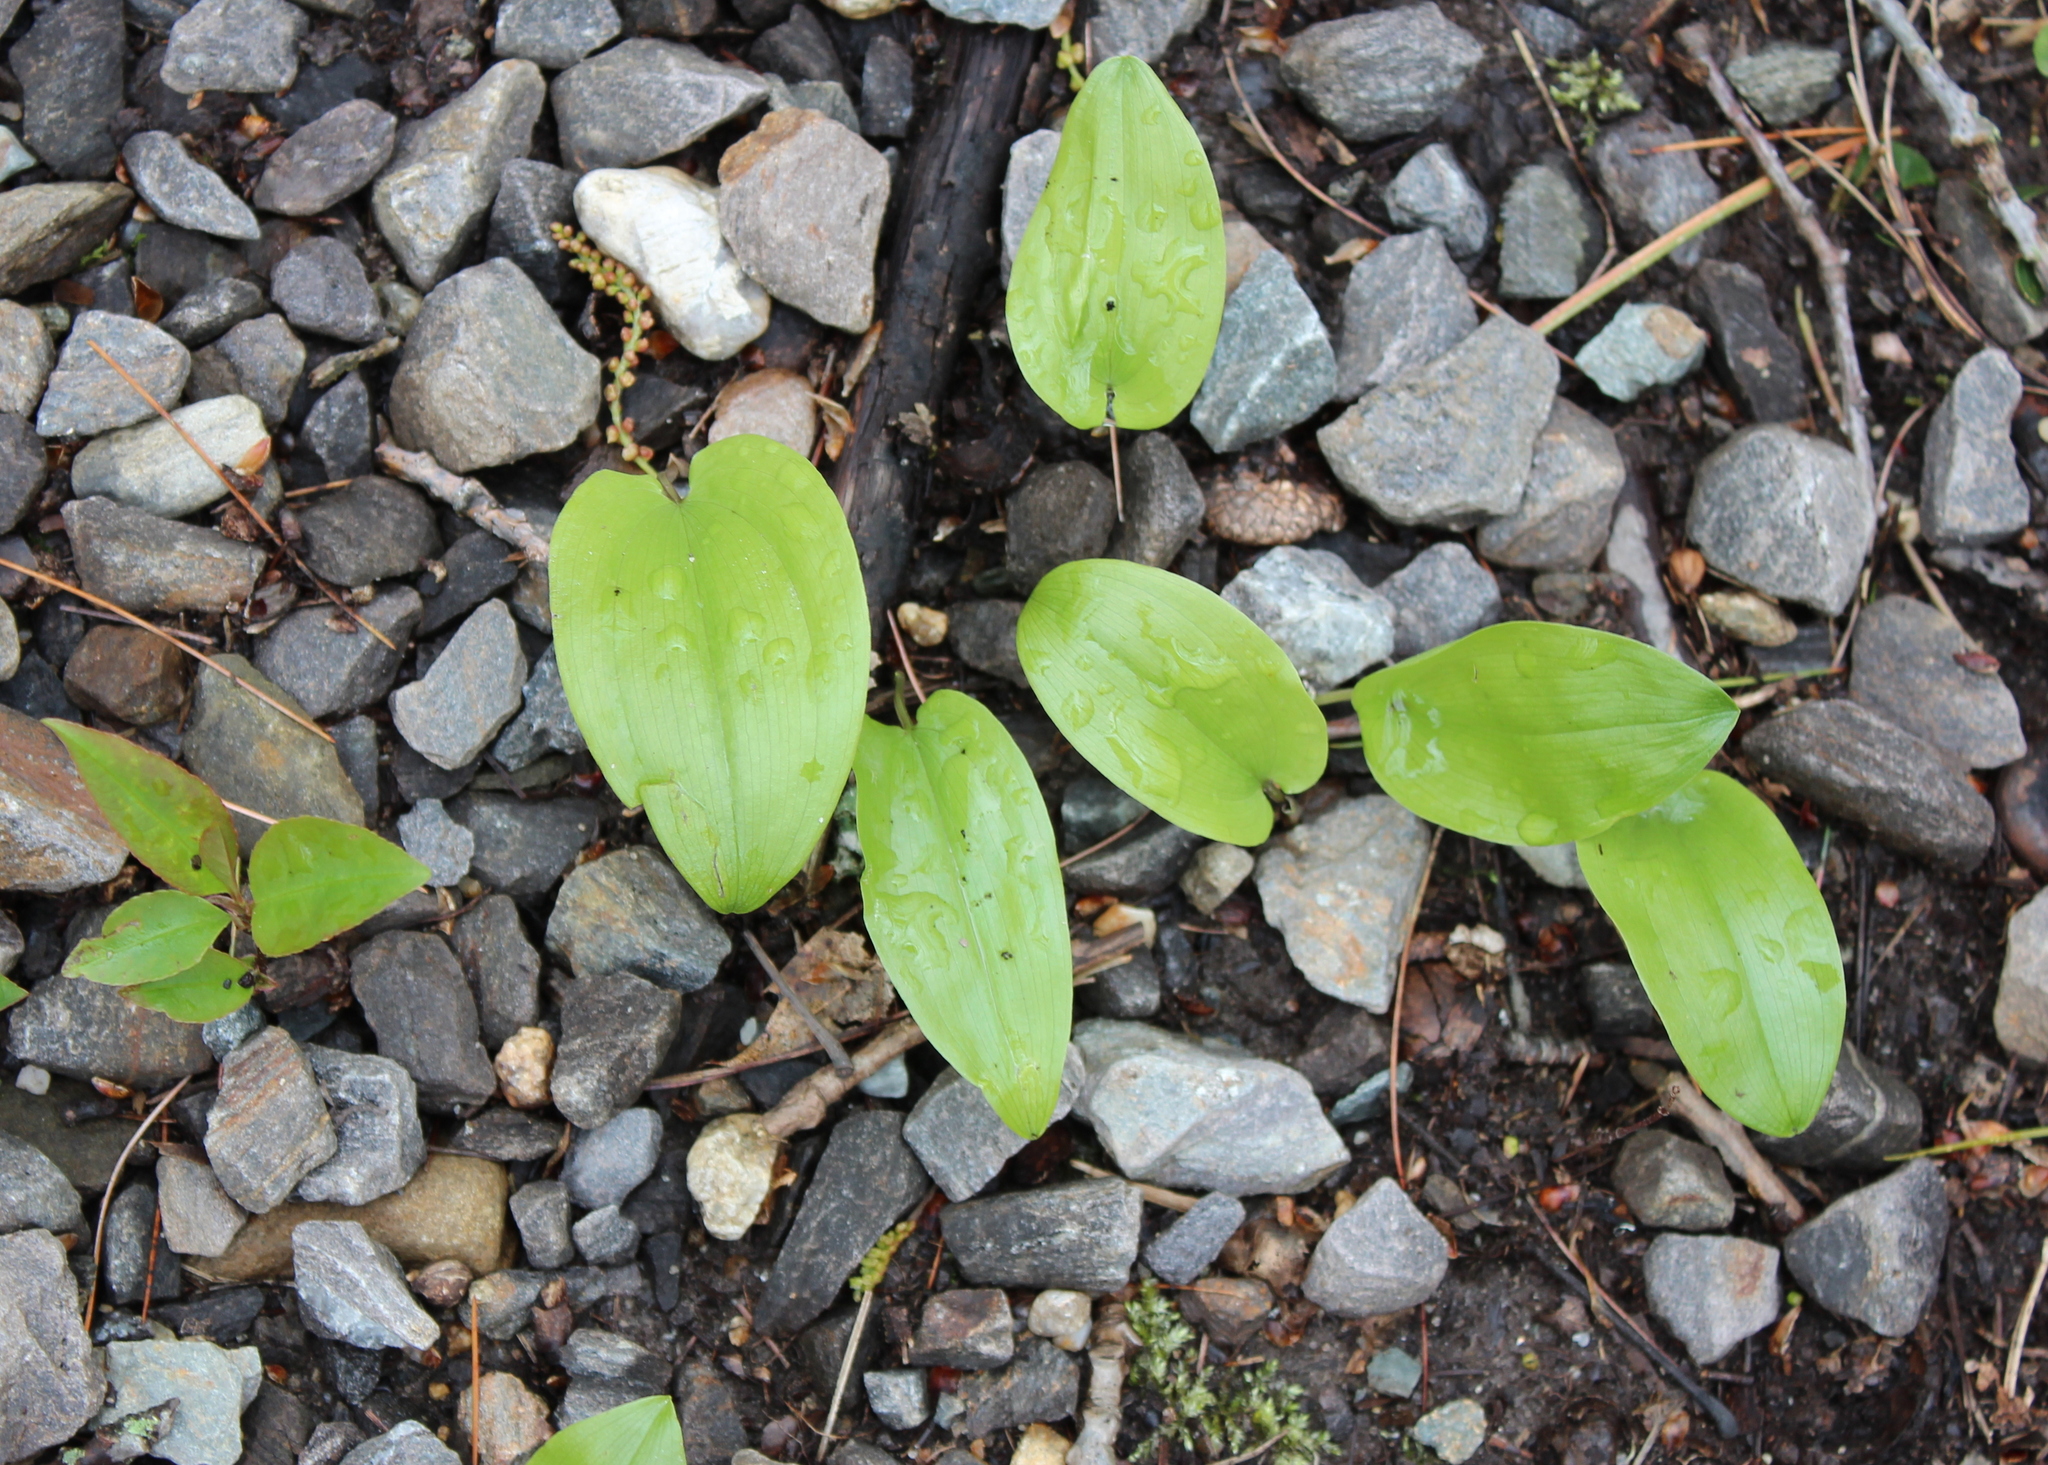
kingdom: Plantae
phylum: Tracheophyta
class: Liliopsida
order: Asparagales
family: Asparagaceae
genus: Maianthemum
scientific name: Maianthemum canadense
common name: False lily-of-the-valley
